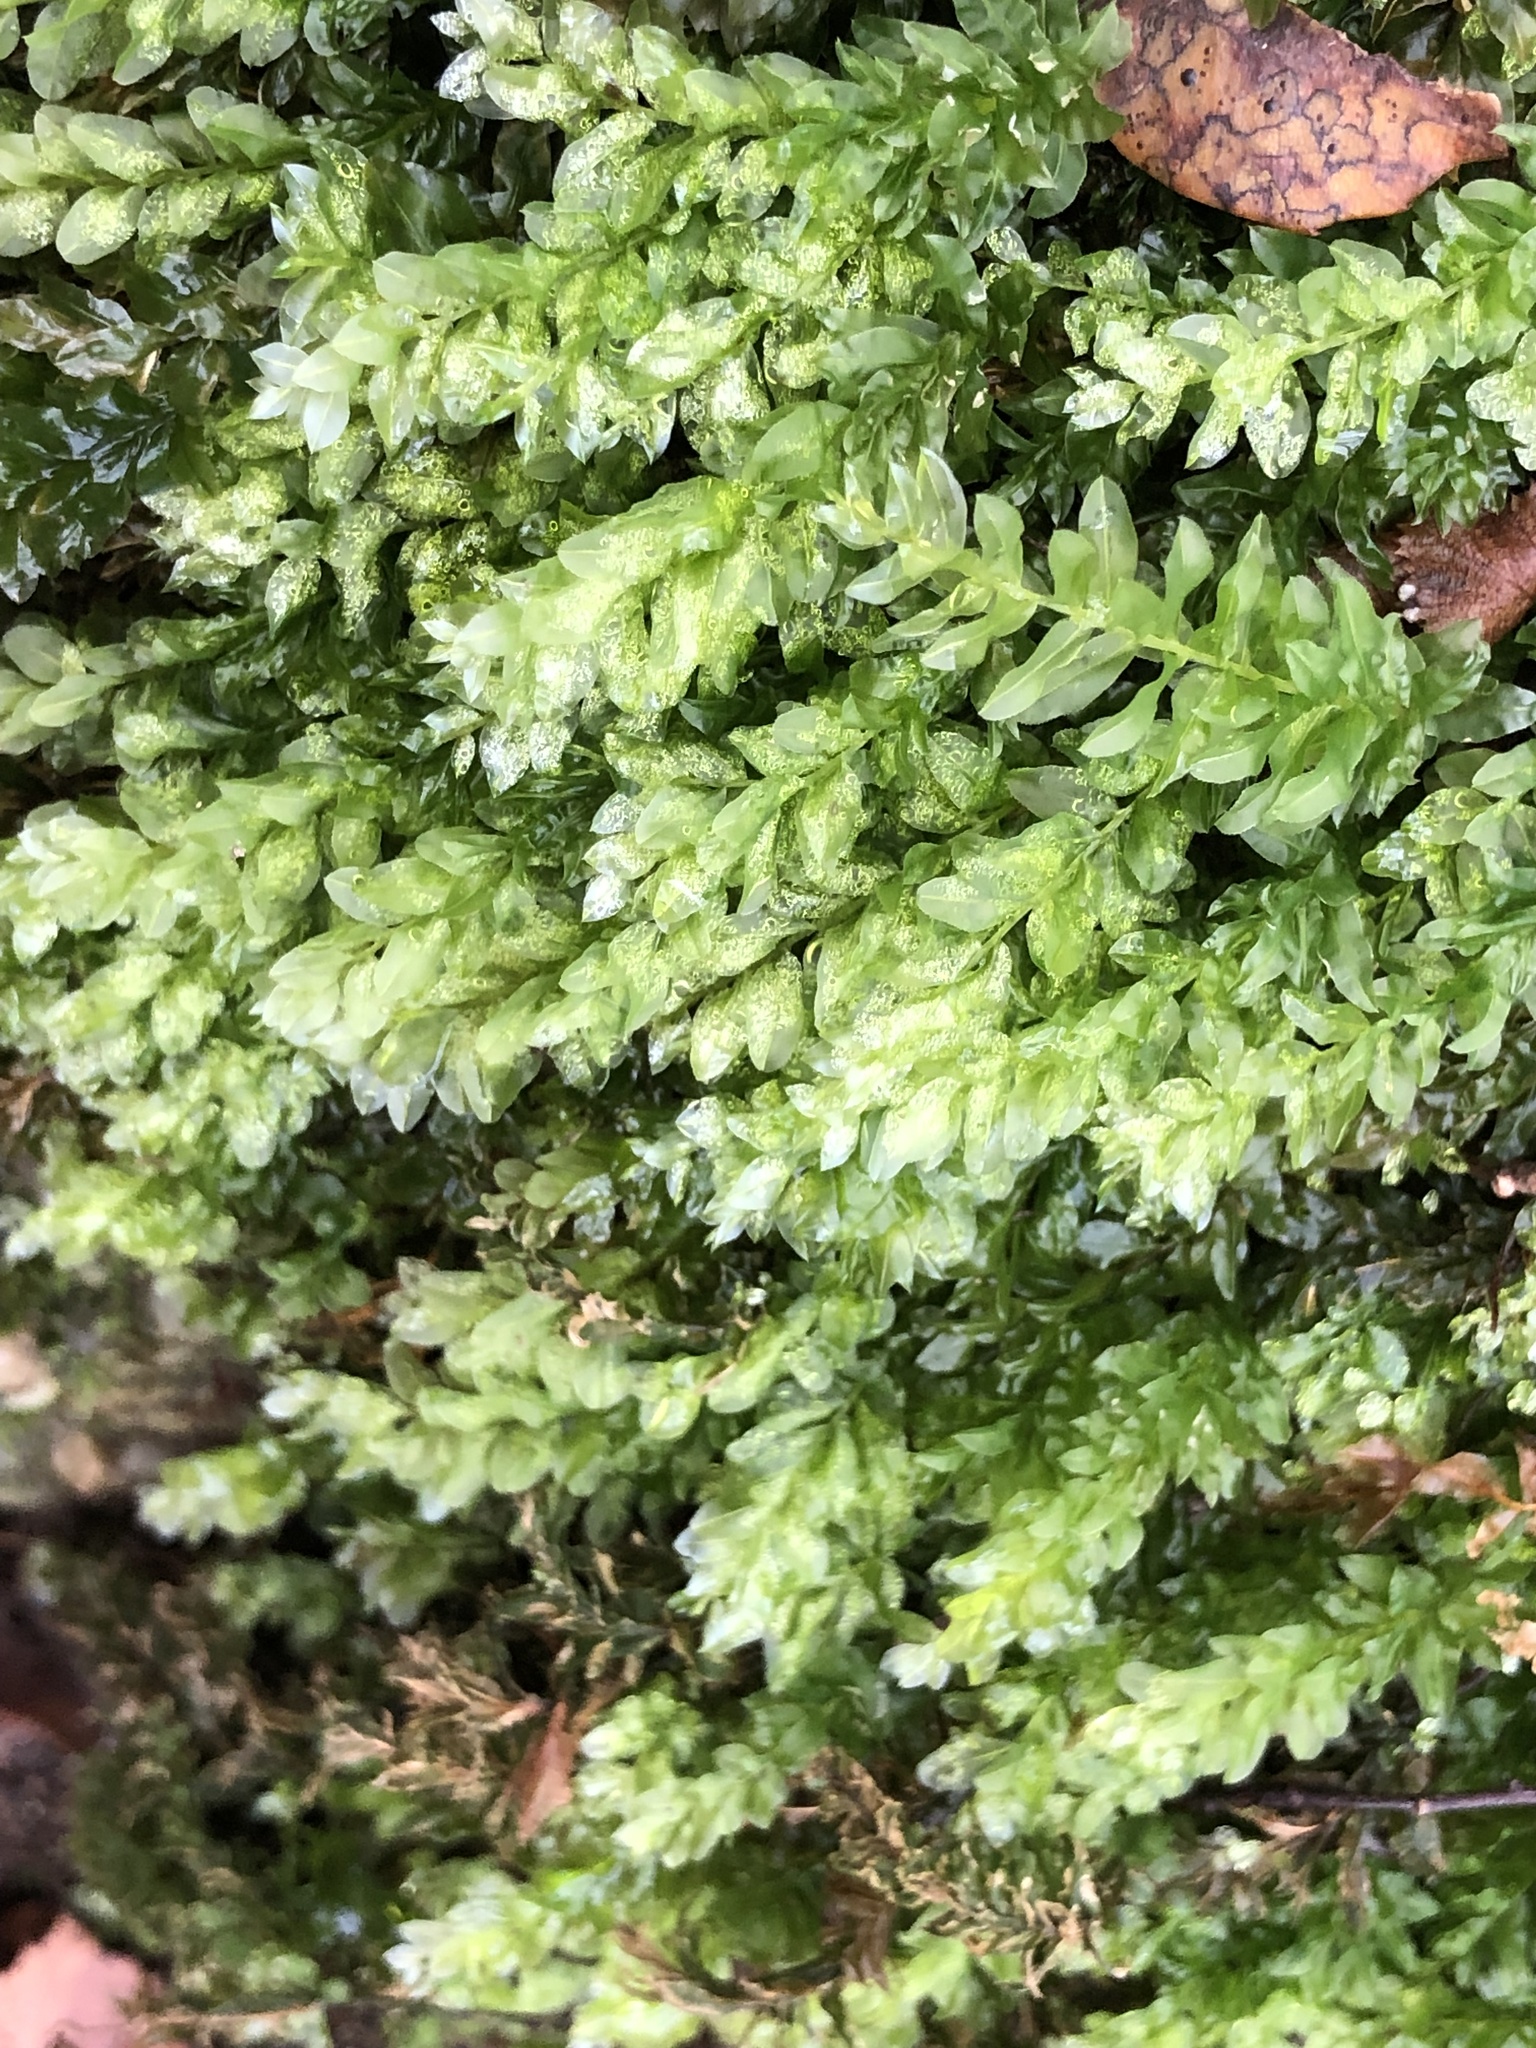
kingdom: Plantae
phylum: Bryophyta
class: Bryopsida
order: Bryales
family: Mniaceae
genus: Plagiomnium
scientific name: Plagiomnium undulatum
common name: Hart's-tongue thyme-moss
